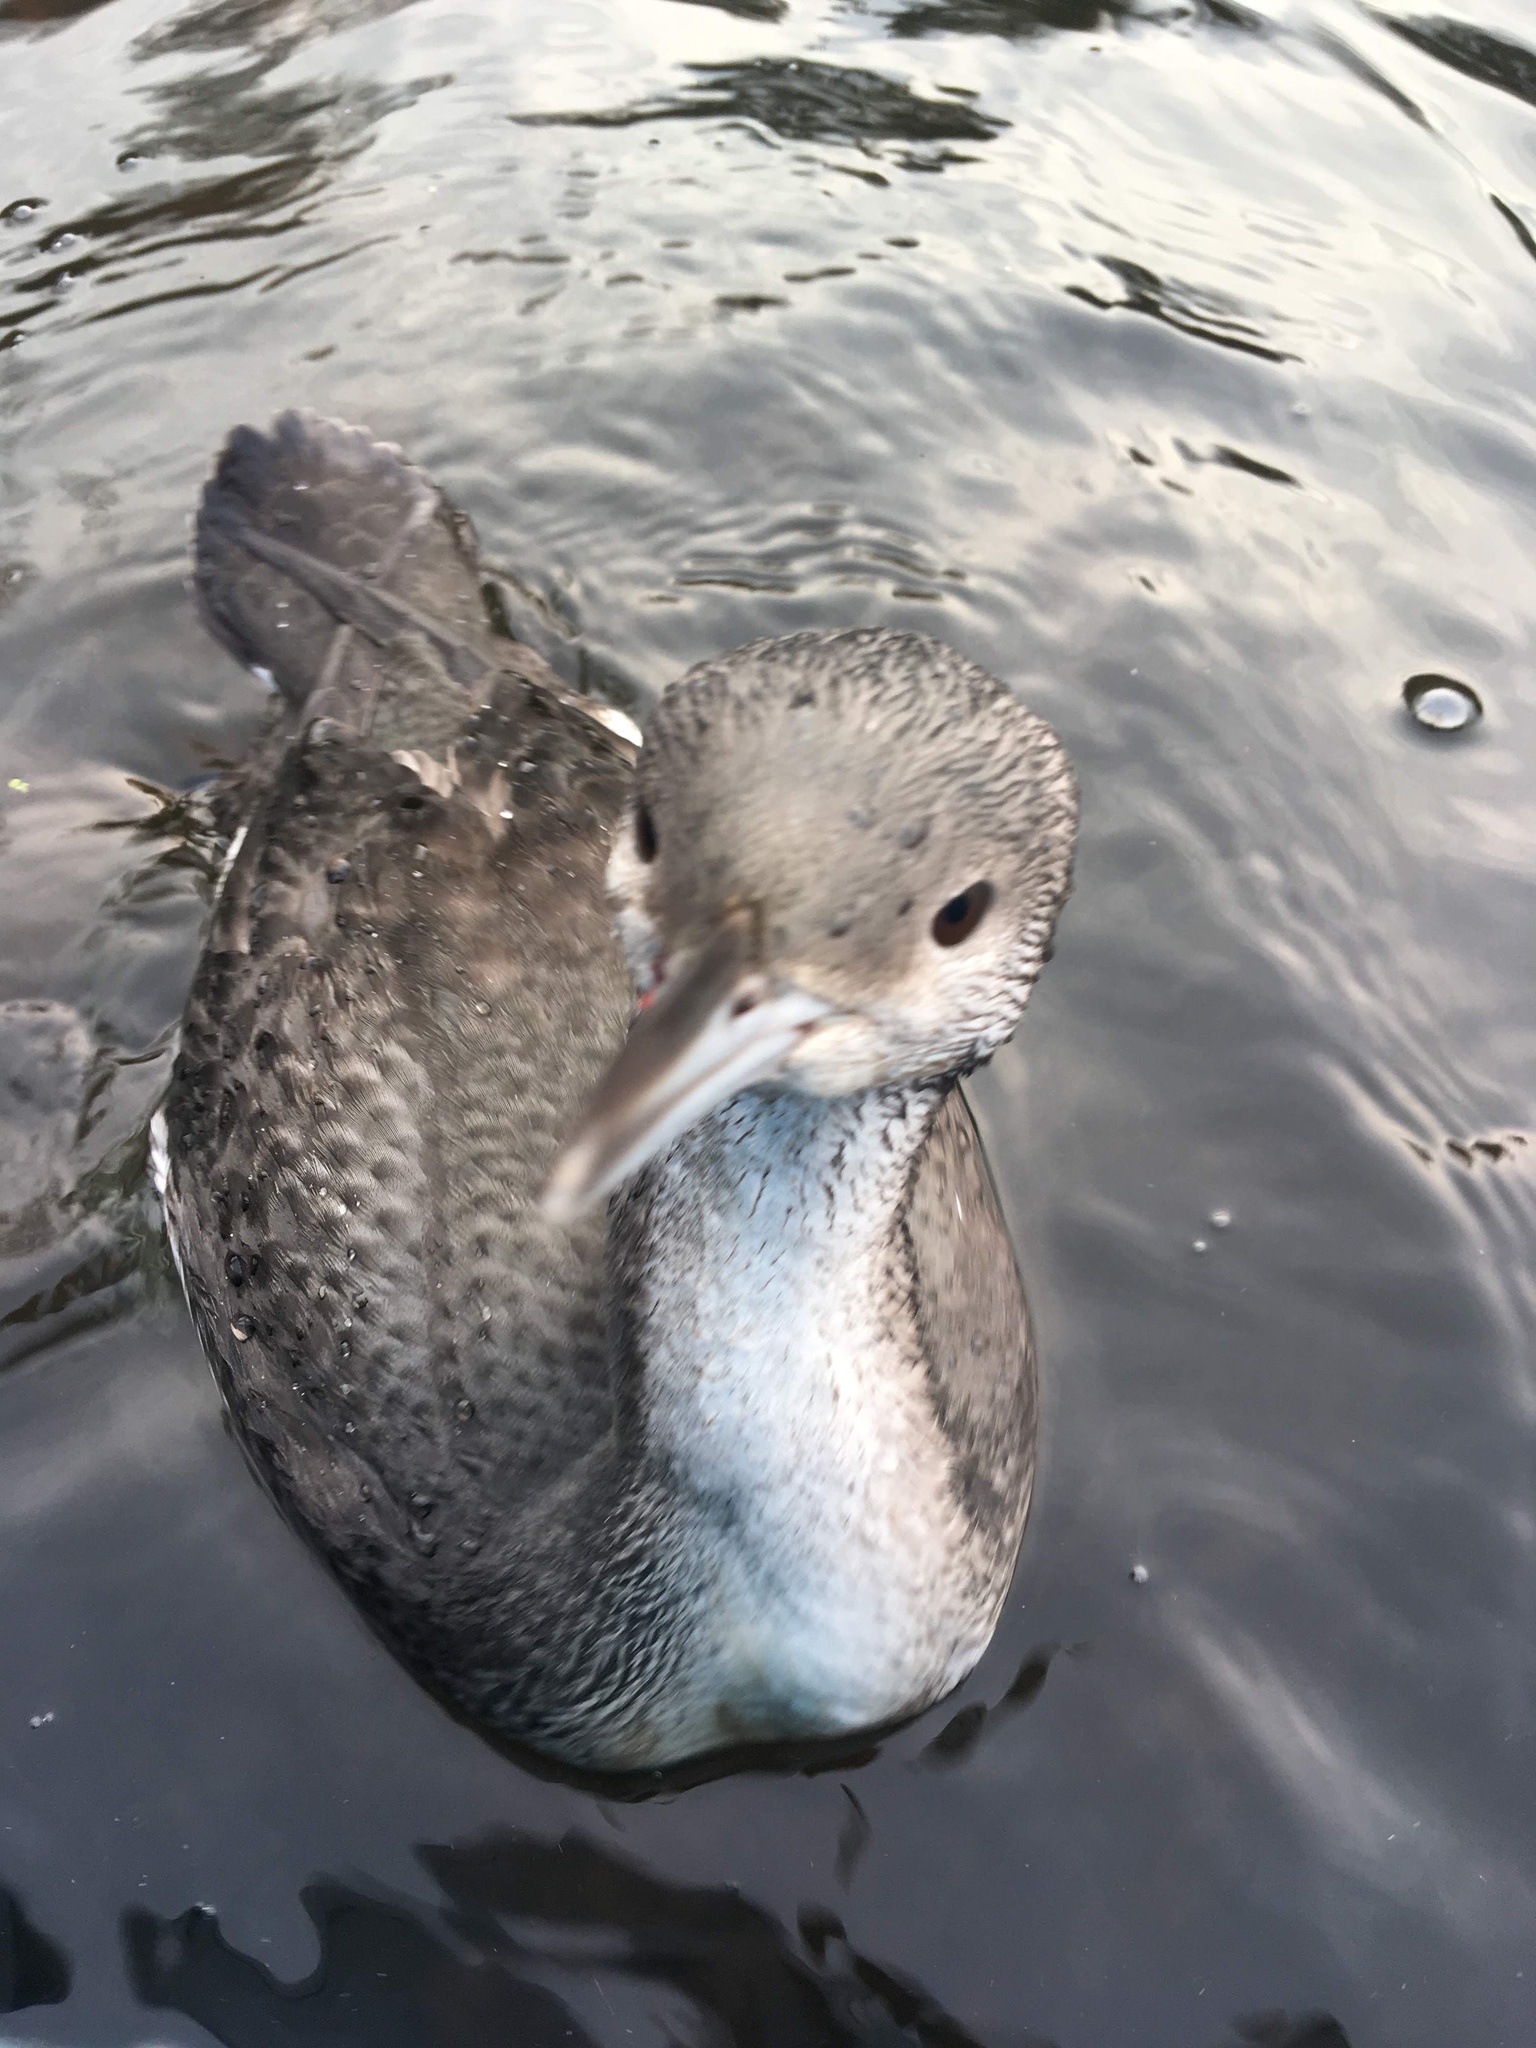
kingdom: Animalia
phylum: Chordata
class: Aves
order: Gaviiformes
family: Gaviidae
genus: Gavia
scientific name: Gavia arctica
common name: Black-throated loon
